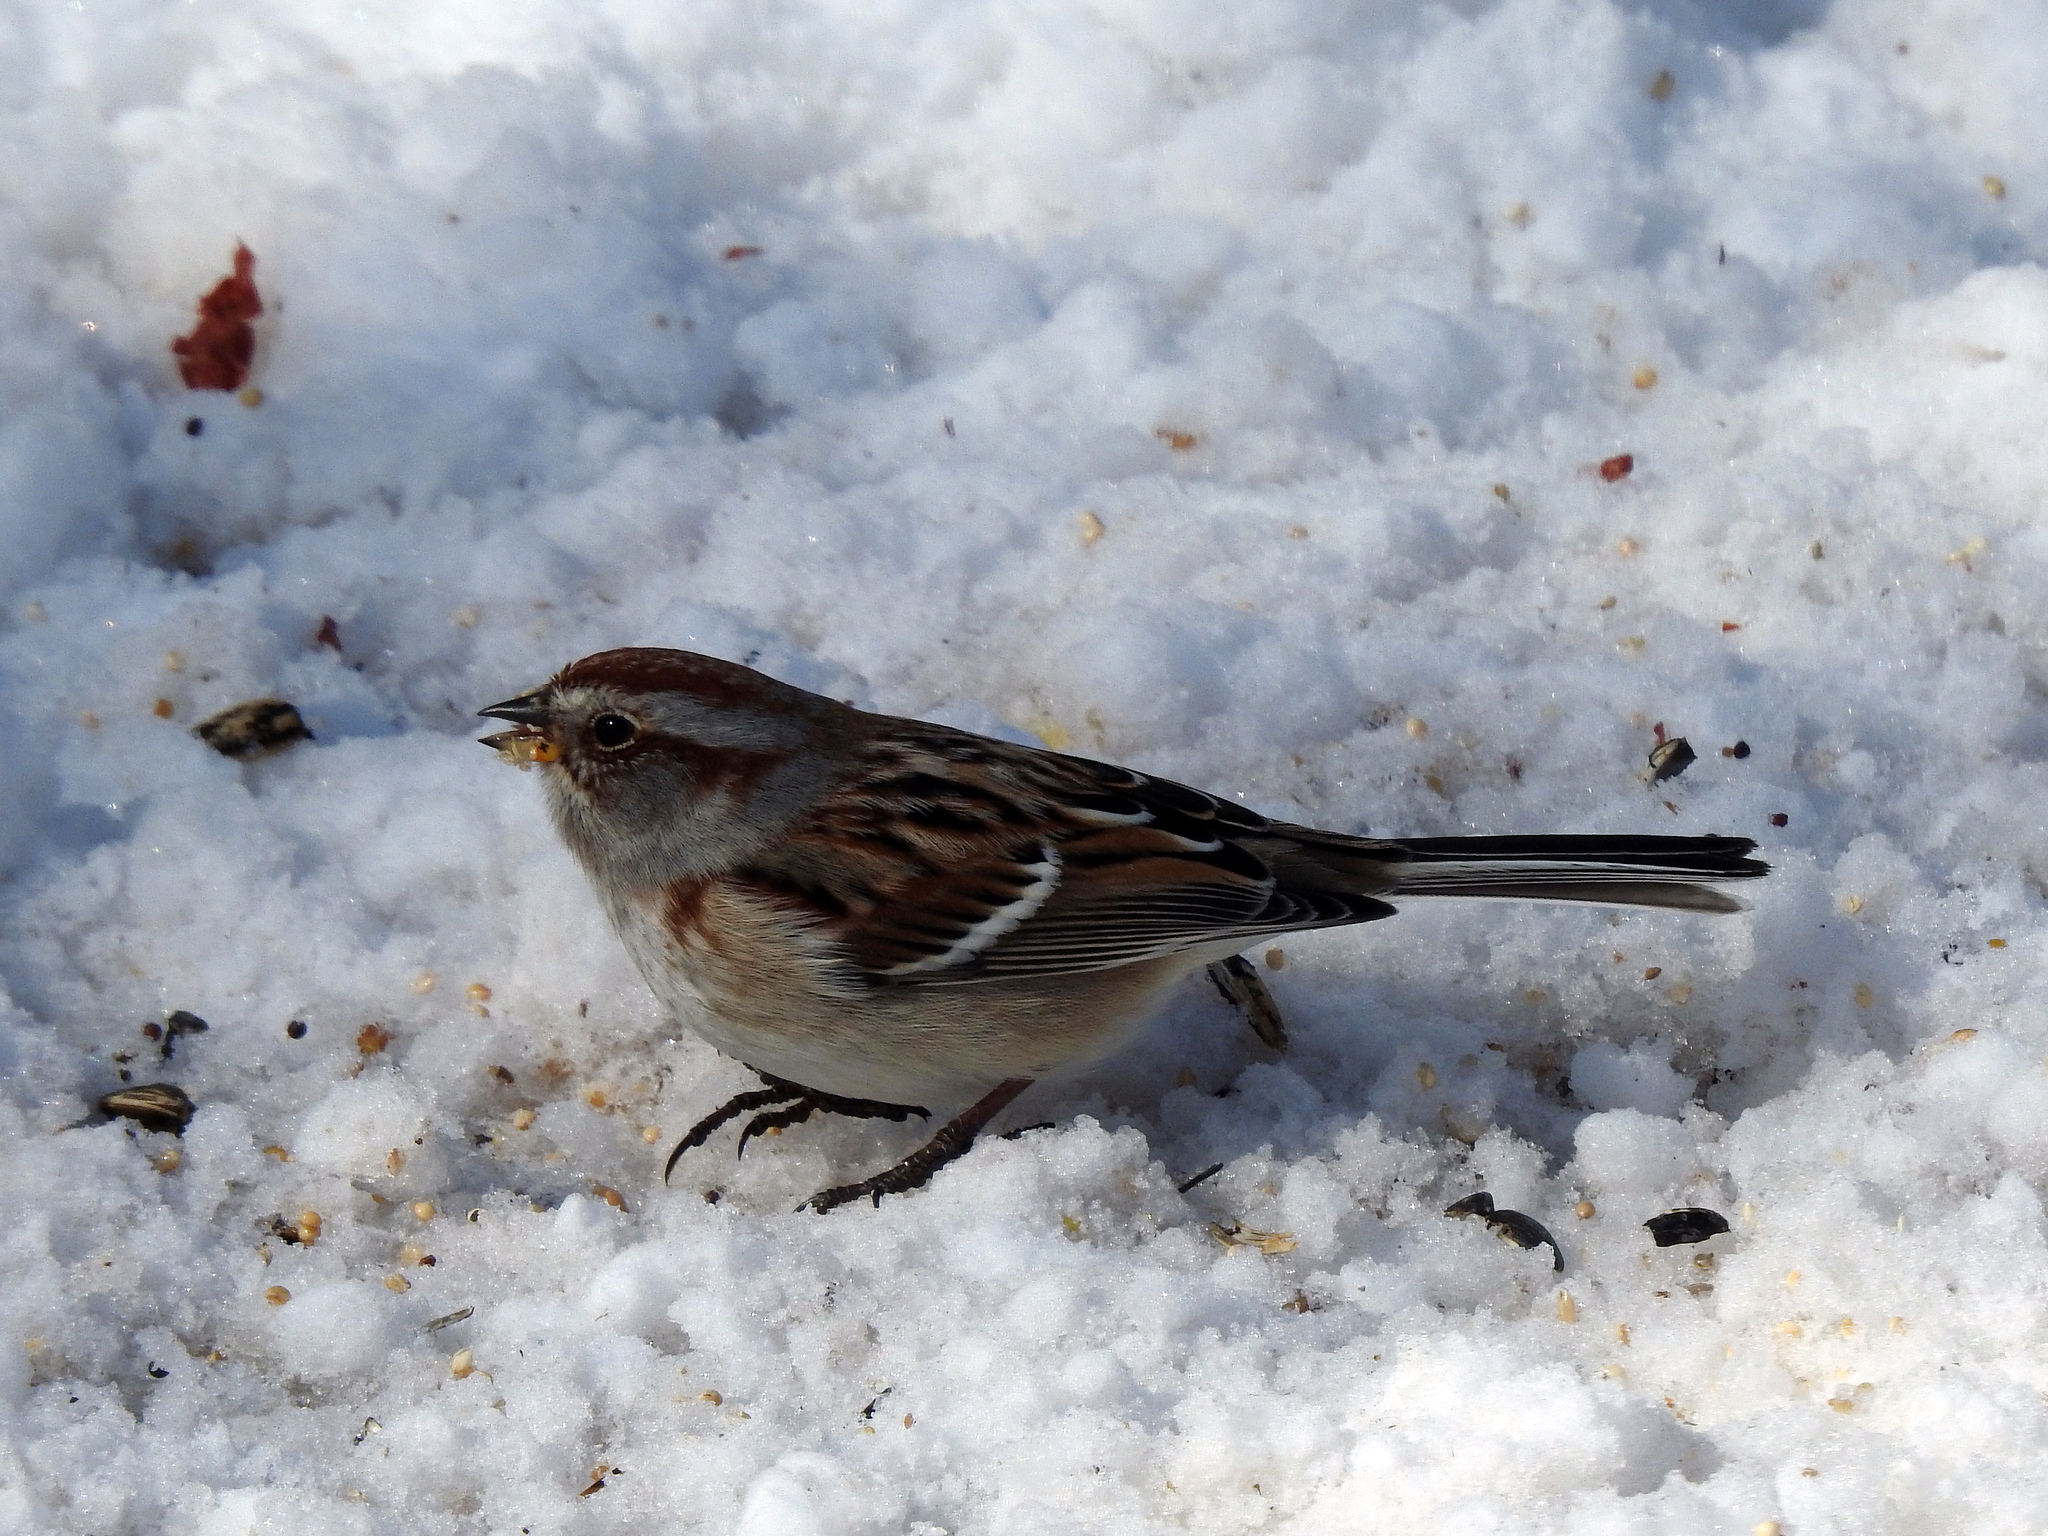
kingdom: Animalia
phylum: Chordata
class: Aves
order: Passeriformes
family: Passerellidae
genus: Spizelloides
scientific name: Spizelloides arborea
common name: American tree sparrow
